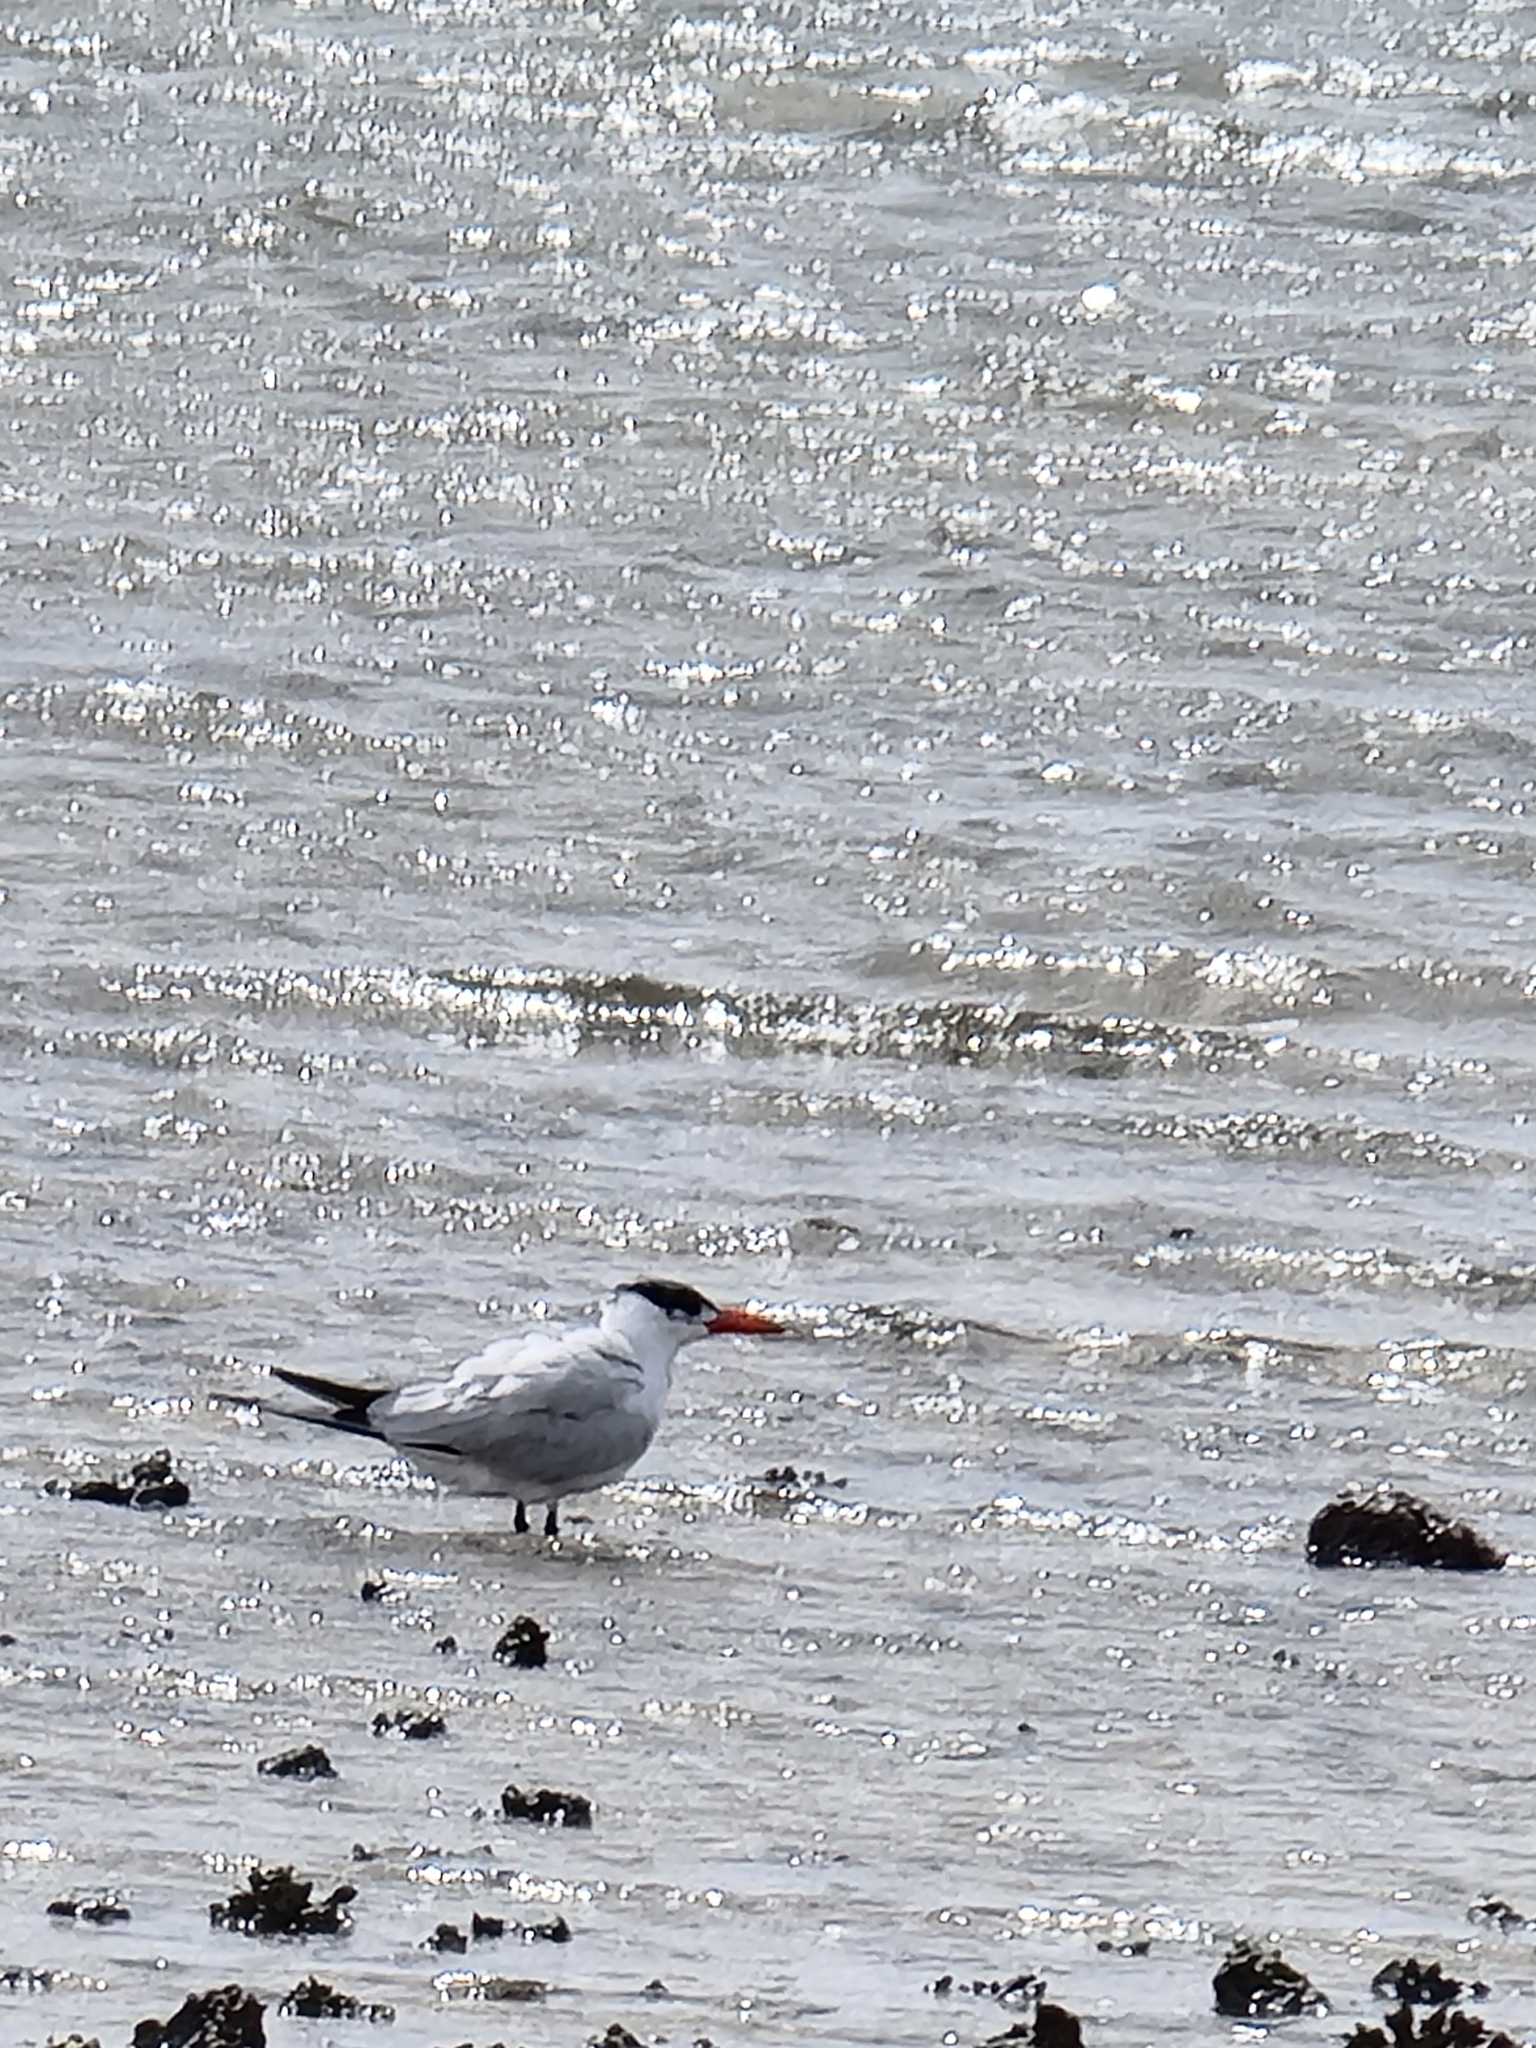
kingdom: Animalia
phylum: Chordata
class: Aves
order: Charadriiformes
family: Laridae
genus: Hydroprogne
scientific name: Hydroprogne caspia
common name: Caspian tern
